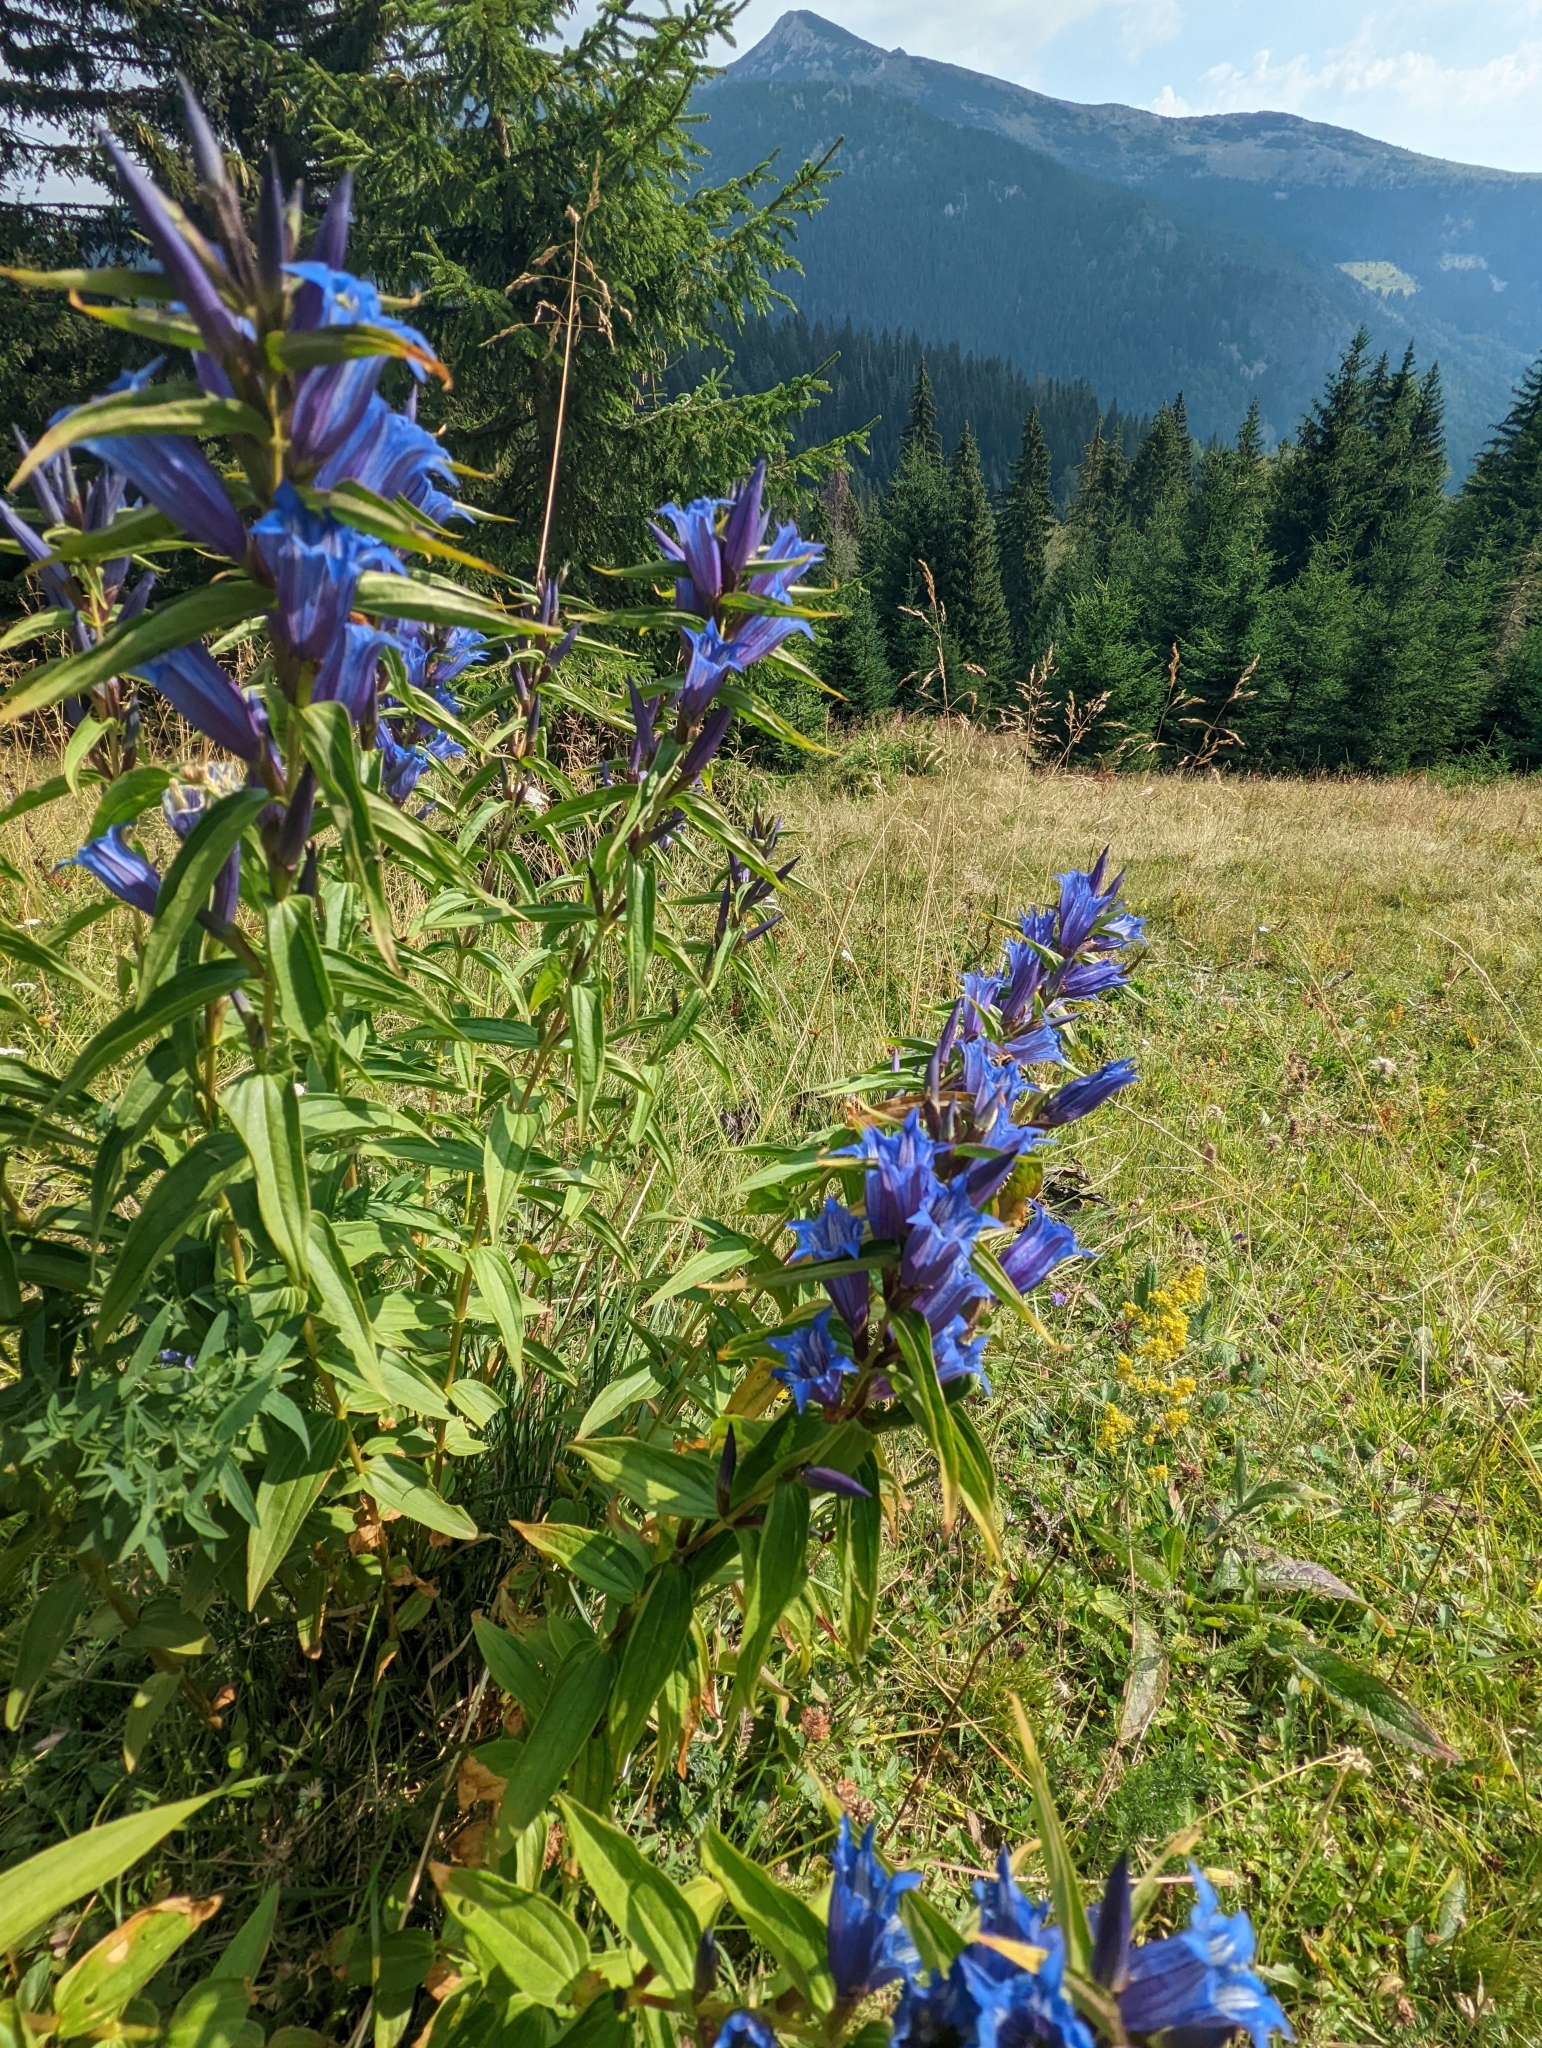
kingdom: Plantae
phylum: Tracheophyta
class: Magnoliopsida
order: Gentianales
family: Gentianaceae
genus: Gentiana
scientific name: Gentiana asclepiadea
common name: Willow gentian
